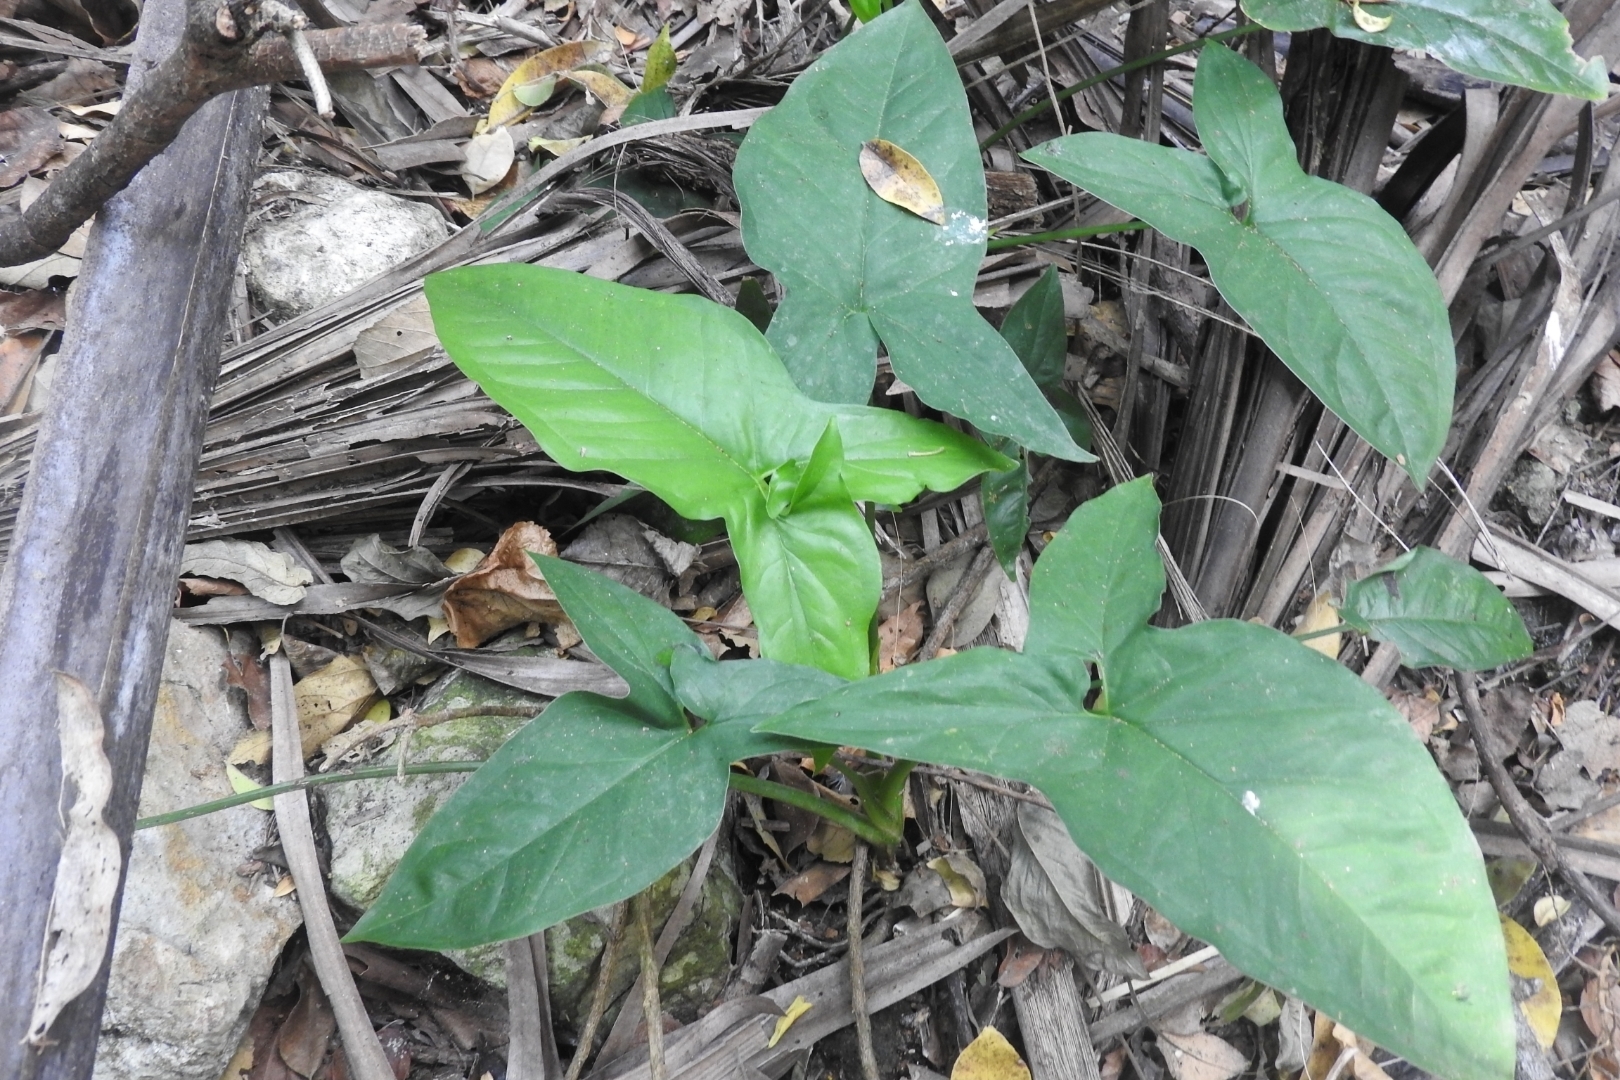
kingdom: Plantae
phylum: Tracheophyta
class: Liliopsida
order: Alismatales
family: Araceae
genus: Syngonium
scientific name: Syngonium podophyllum
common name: American evergreen
